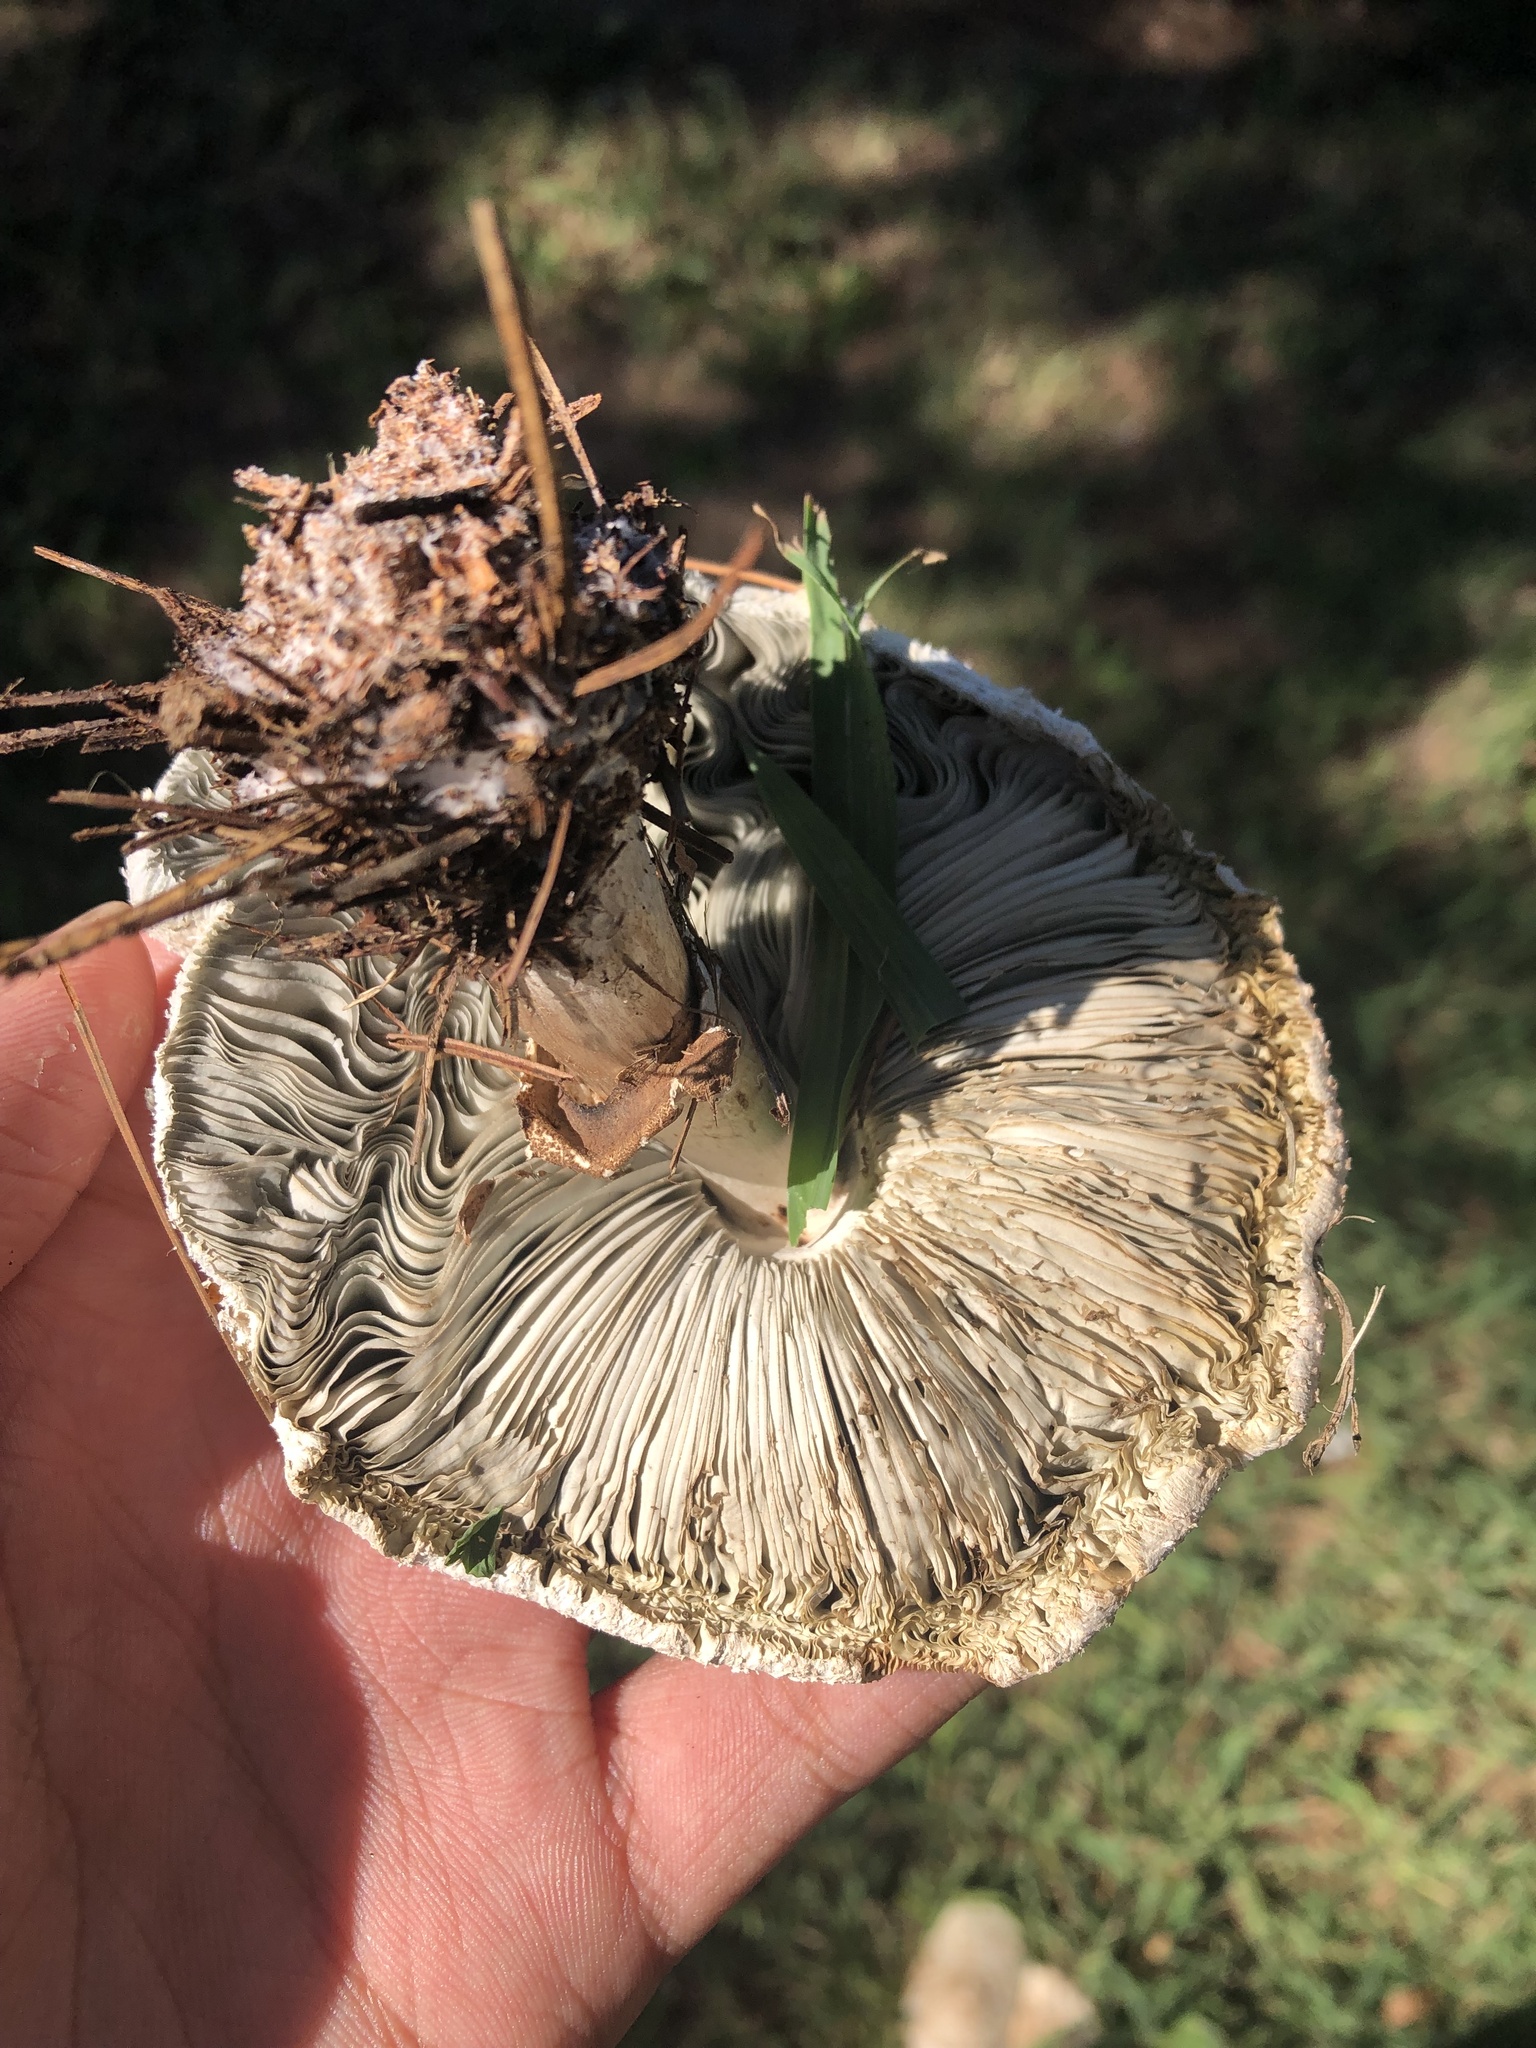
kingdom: Fungi
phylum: Basidiomycota
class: Agaricomycetes
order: Agaricales
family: Agaricaceae
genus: Chlorophyllum
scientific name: Chlorophyllum molybdites
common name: False parasol
